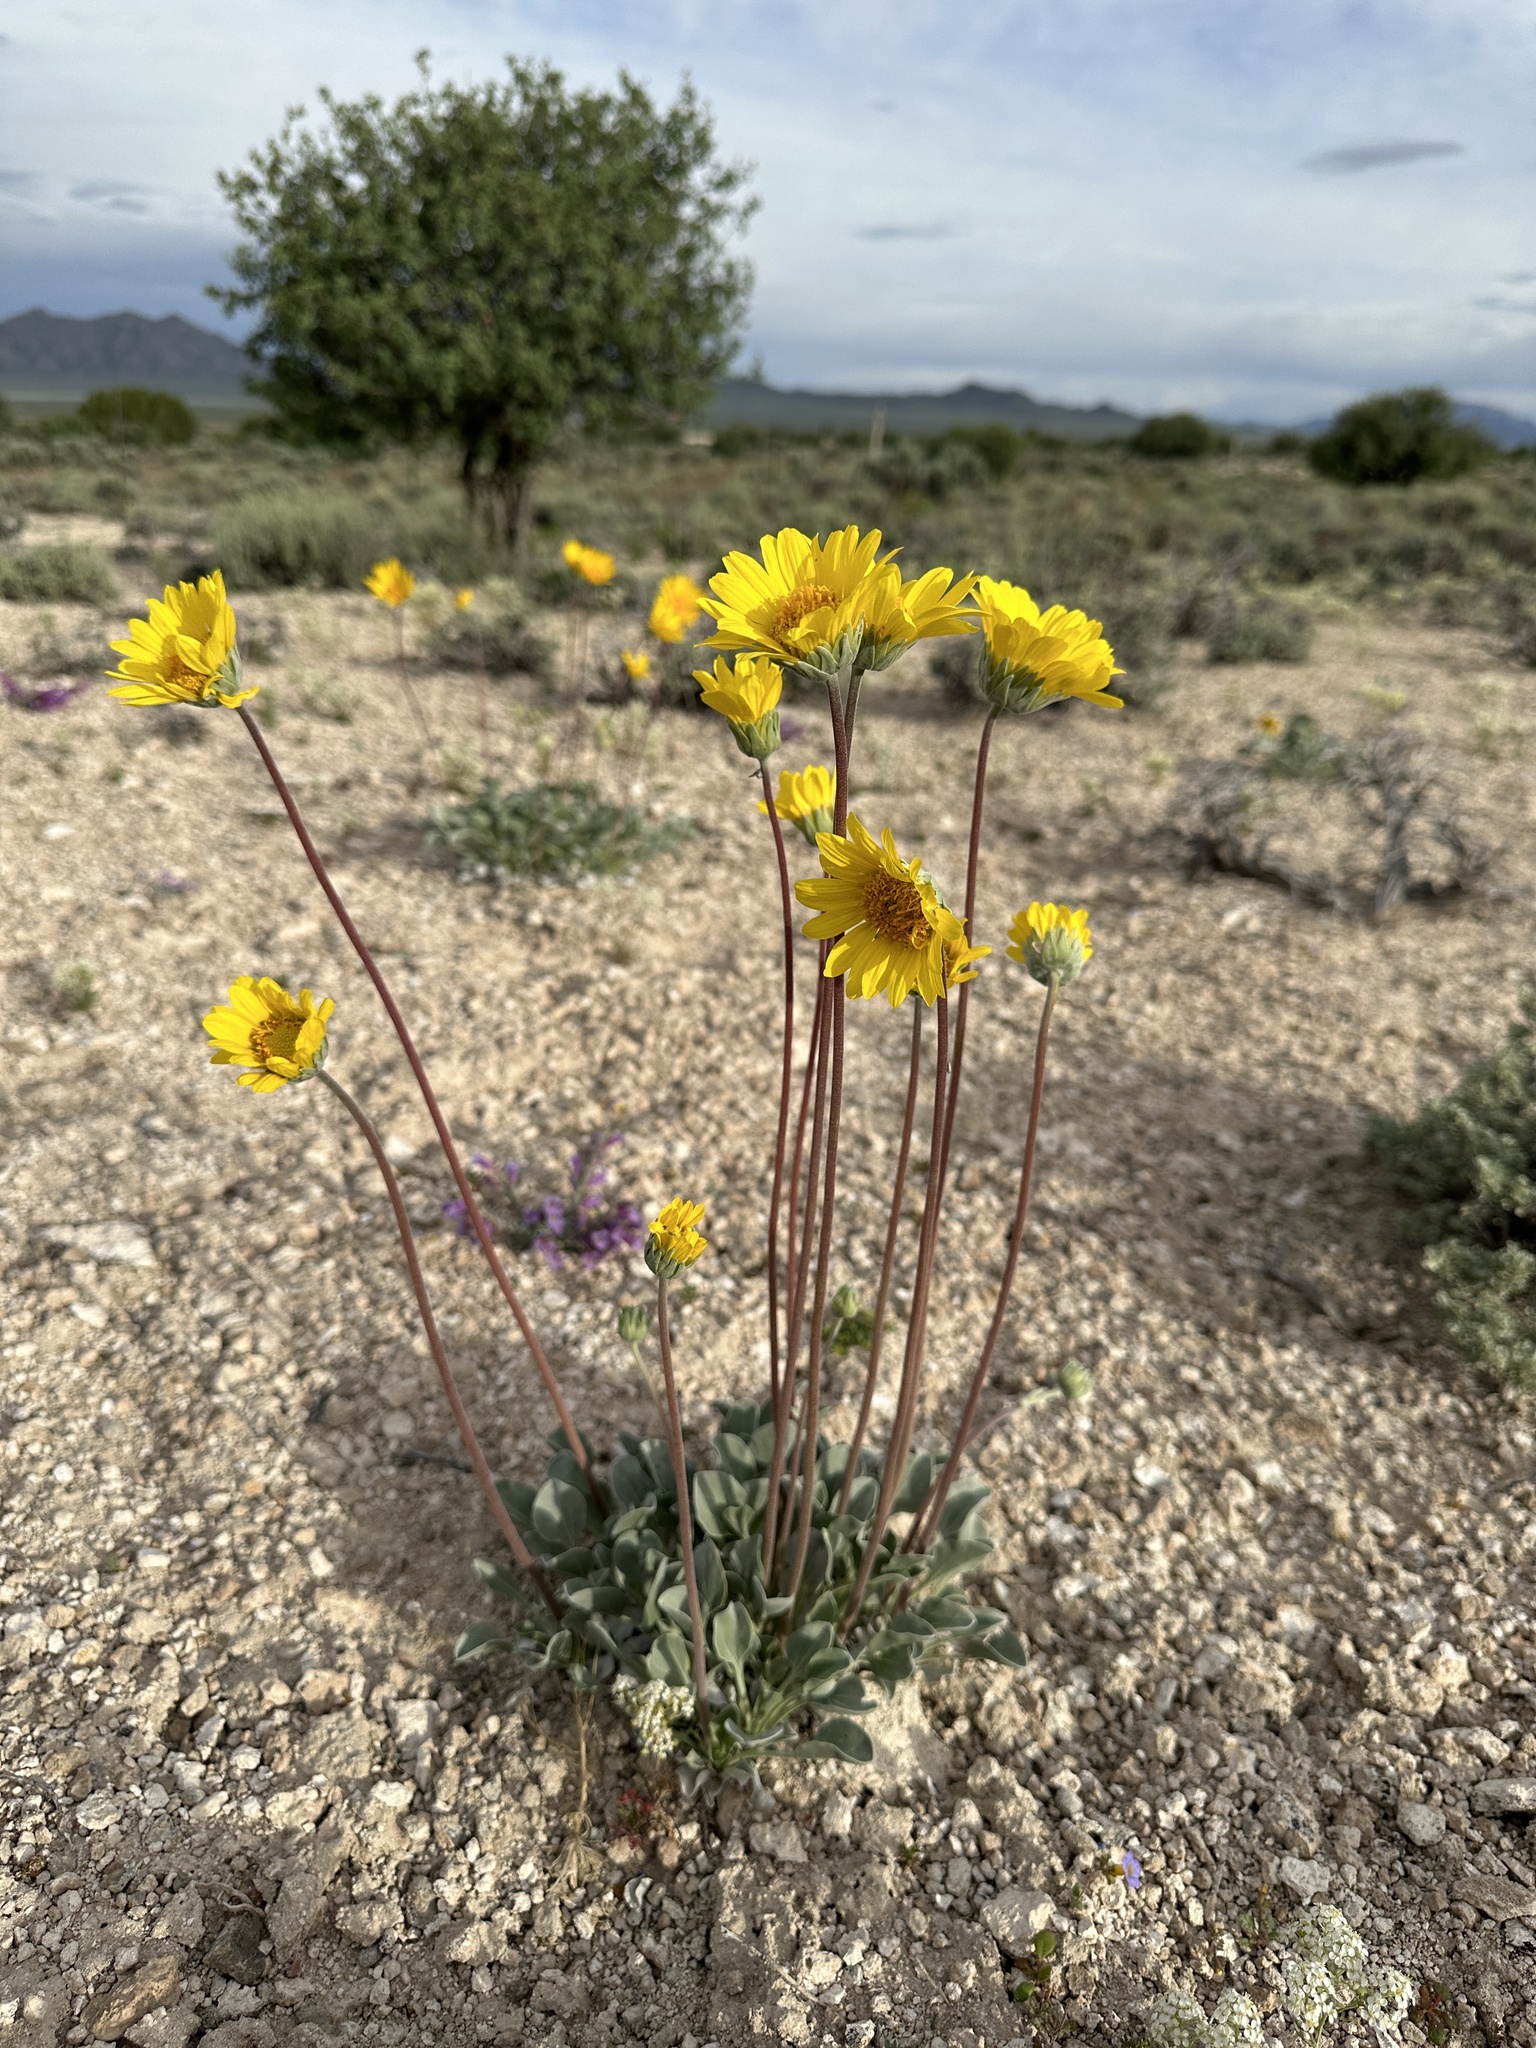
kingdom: Plantae
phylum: Tracheophyta
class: Magnoliopsida
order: Asterales
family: Asteraceae
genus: Enceliopsis
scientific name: Enceliopsis nudicaulis
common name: Naked-stem daisy
